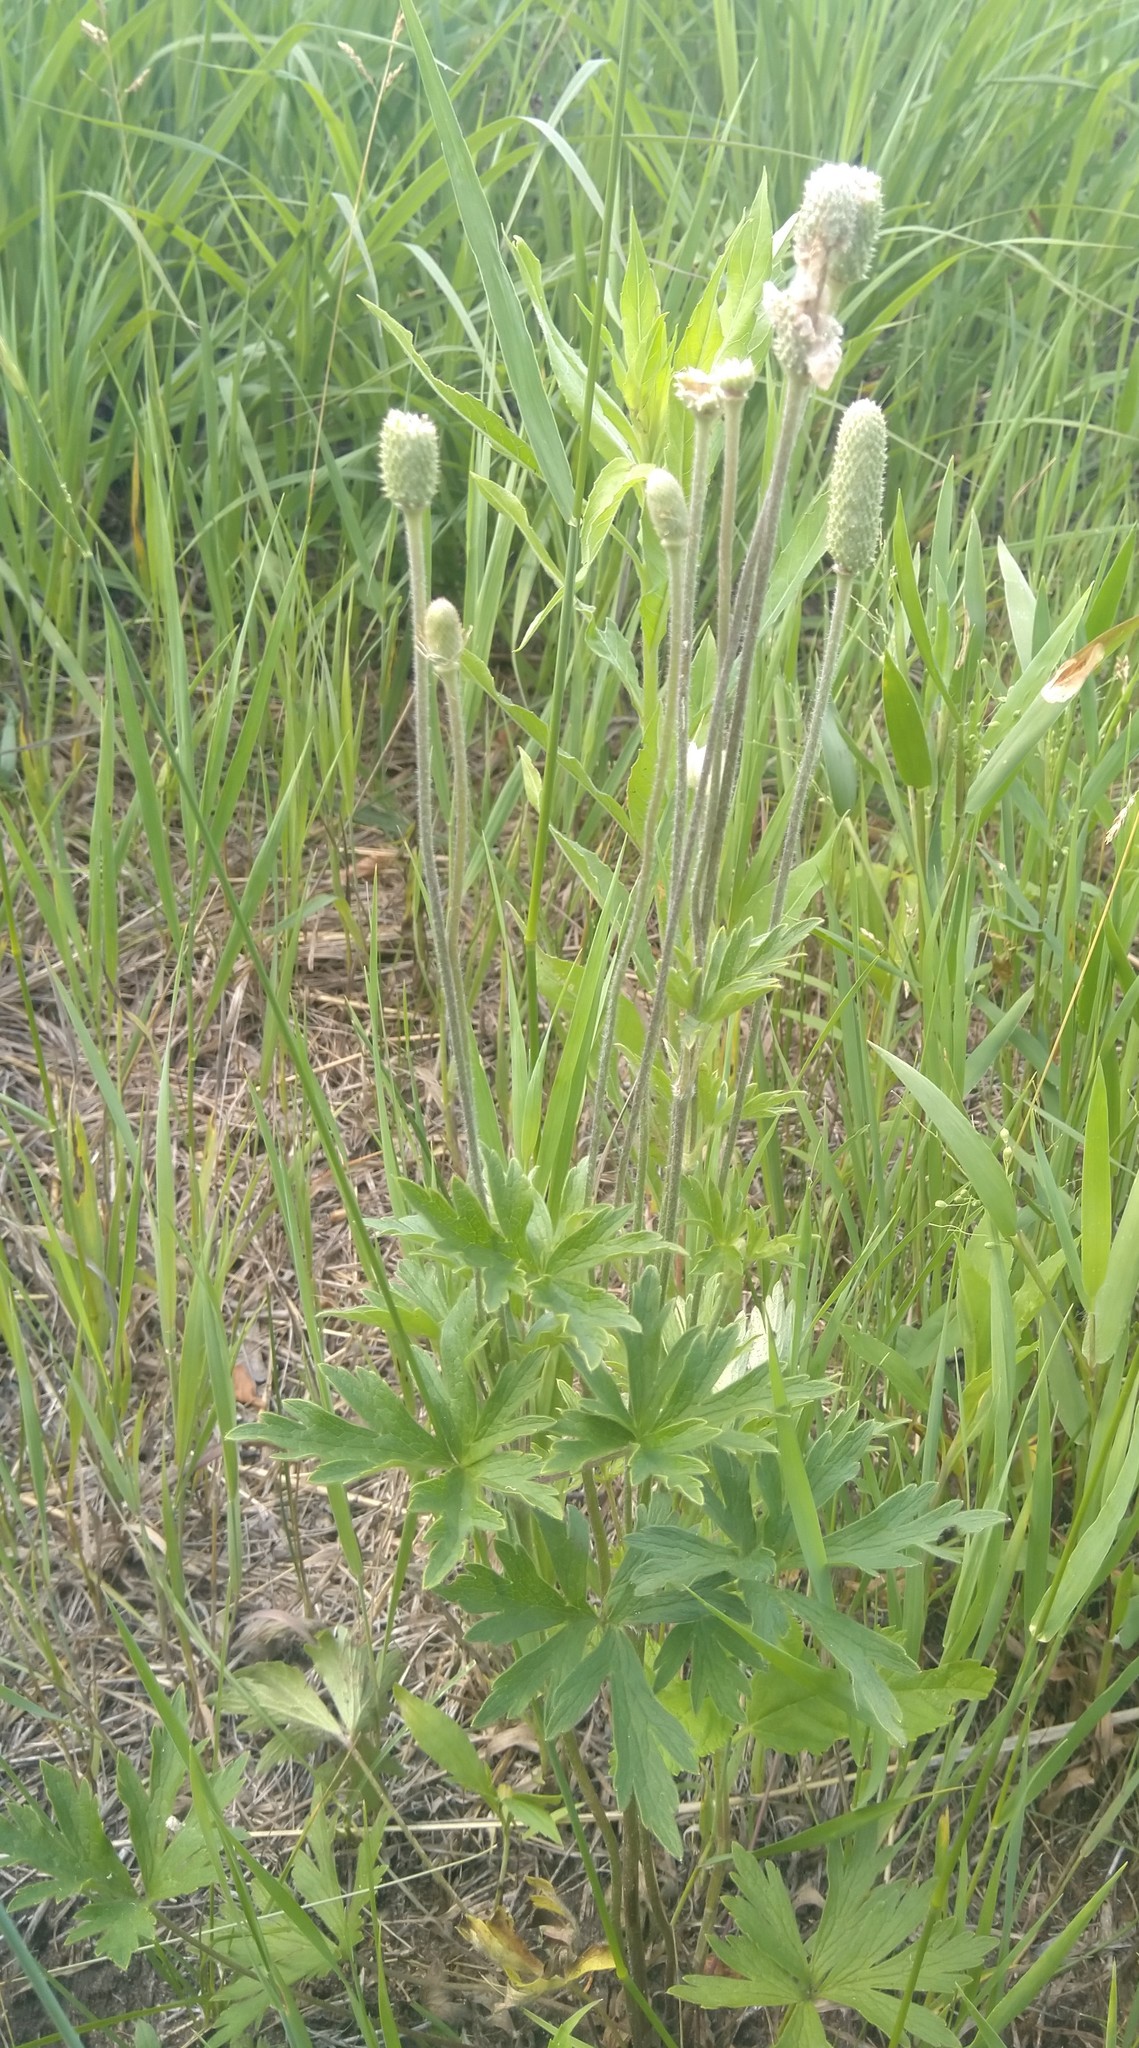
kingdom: Plantae
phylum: Tracheophyta
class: Magnoliopsida
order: Ranunculales
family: Ranunculaceae
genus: Anemone
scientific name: Anemone cylindrica
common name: Candle anemone
